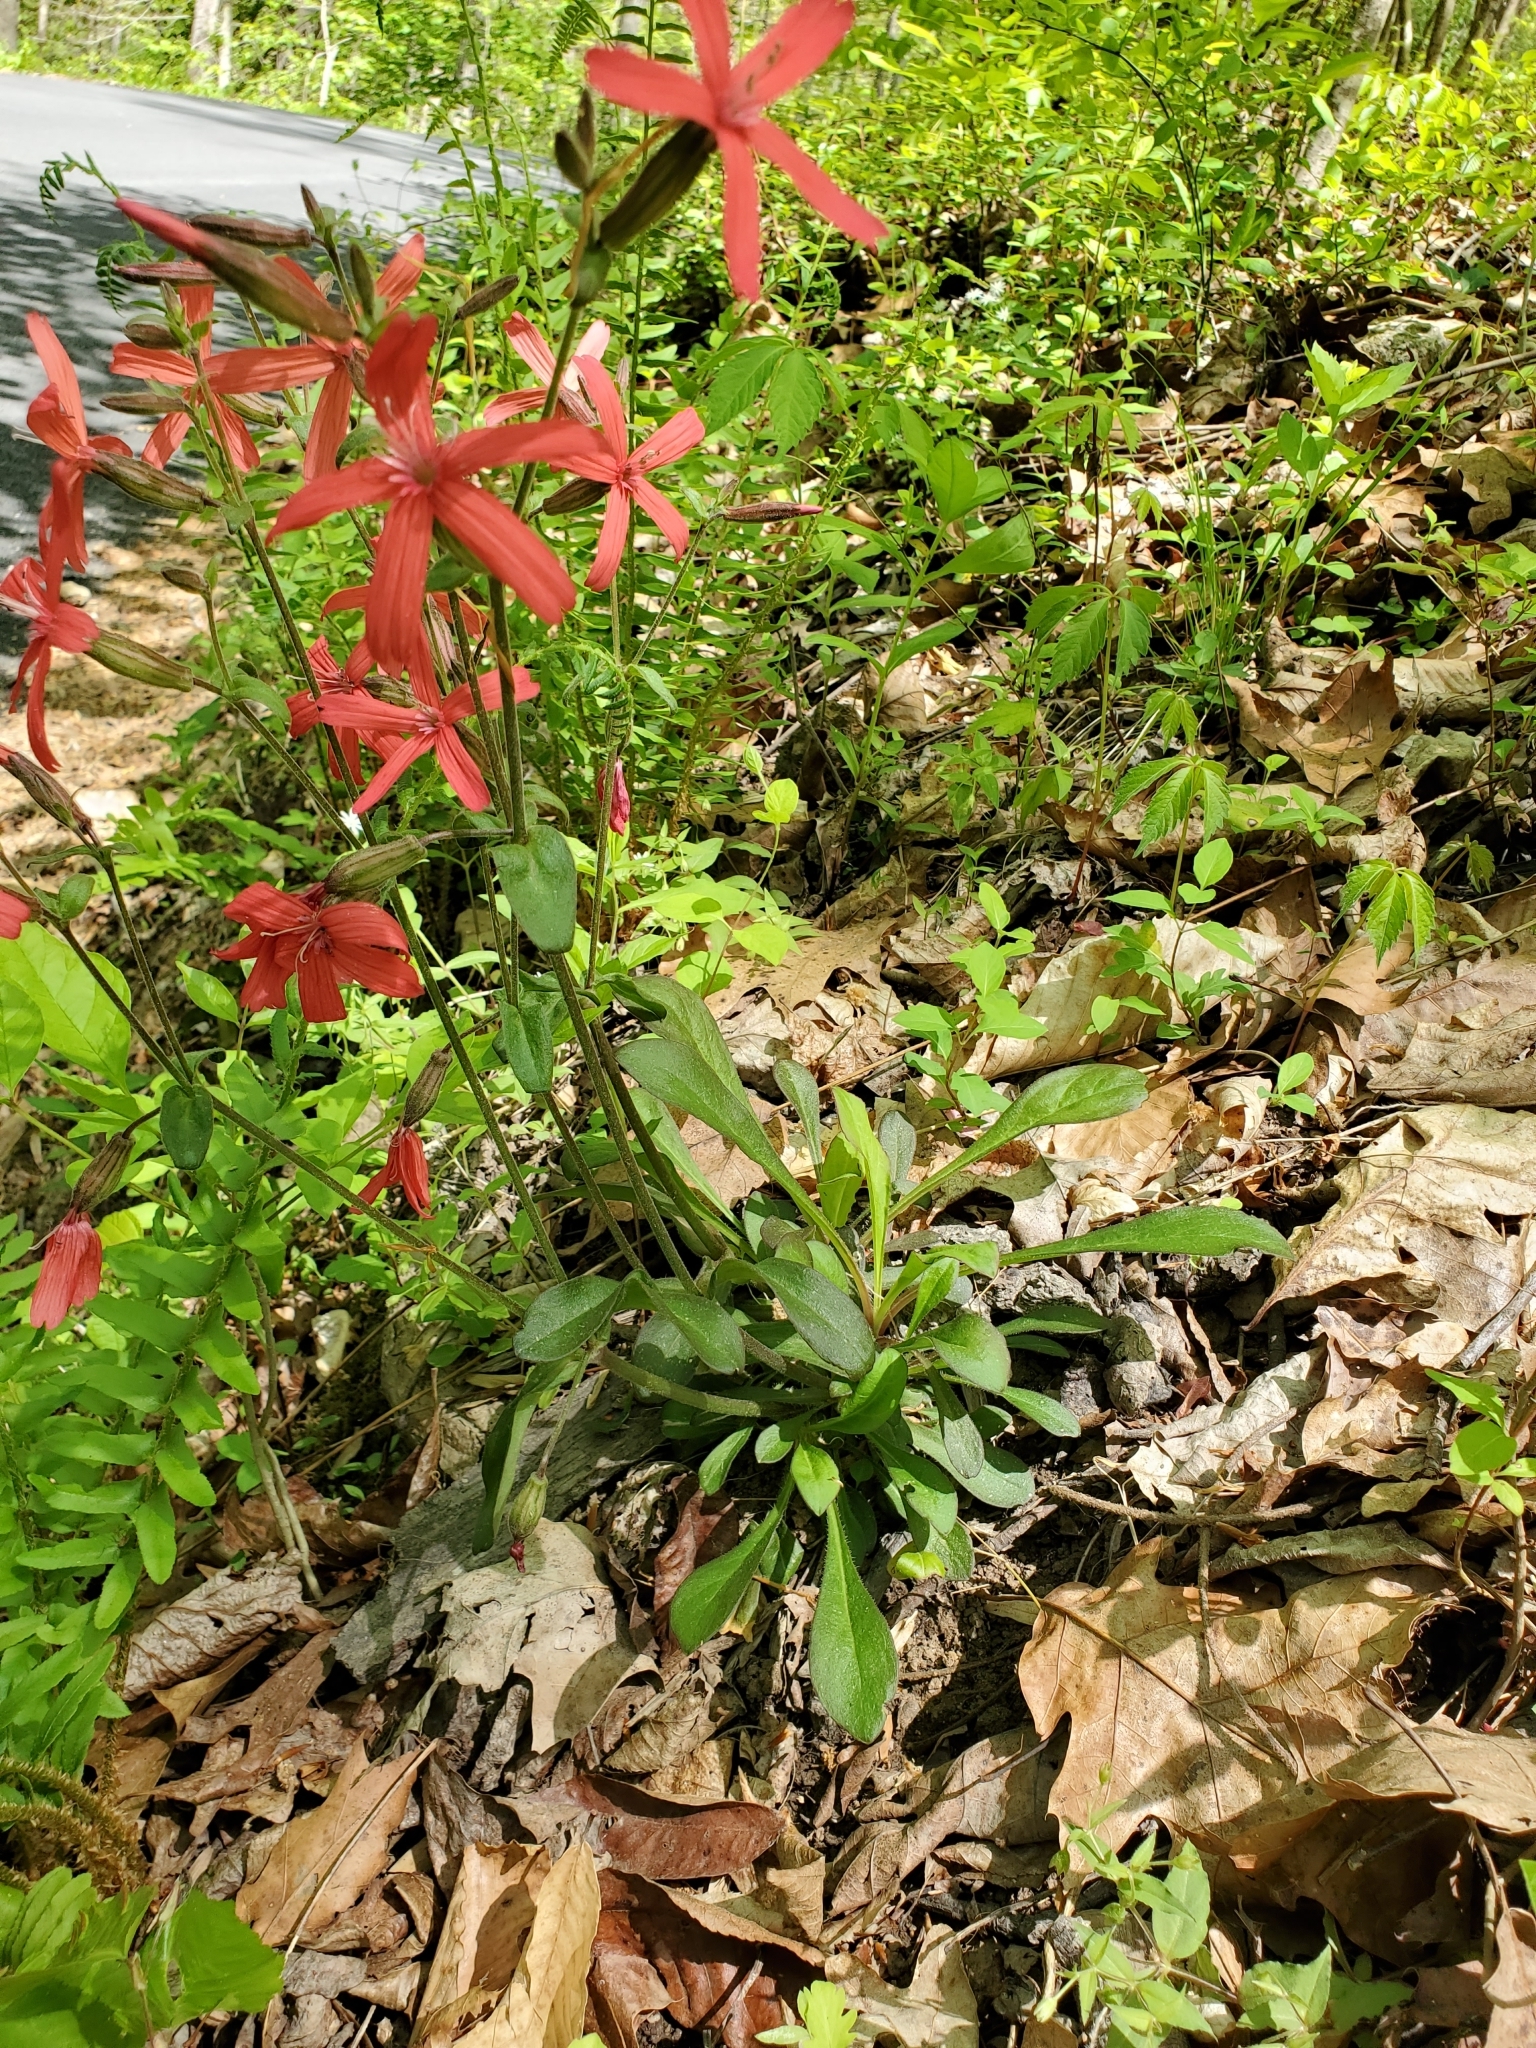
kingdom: Plantae
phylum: Tracheophyta
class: Magnoliopsida
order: Caryophyllales
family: Caryophyllaceae
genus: Silene
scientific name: Silene virginica
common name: Fire-pink
